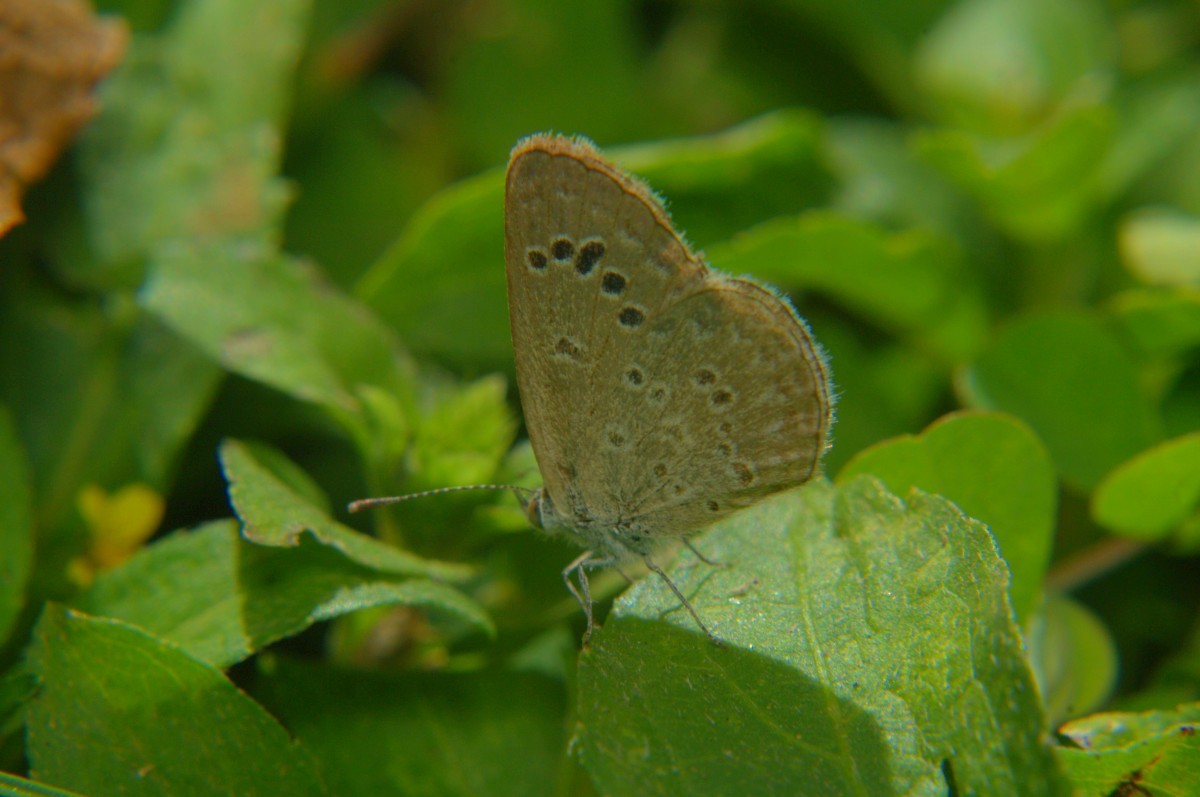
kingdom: Animalia
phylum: Arthropoda
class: Insecta
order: Lepidoptera
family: Lycaenidae
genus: Zizina
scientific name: Zizina otis
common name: Lesser grass blue
